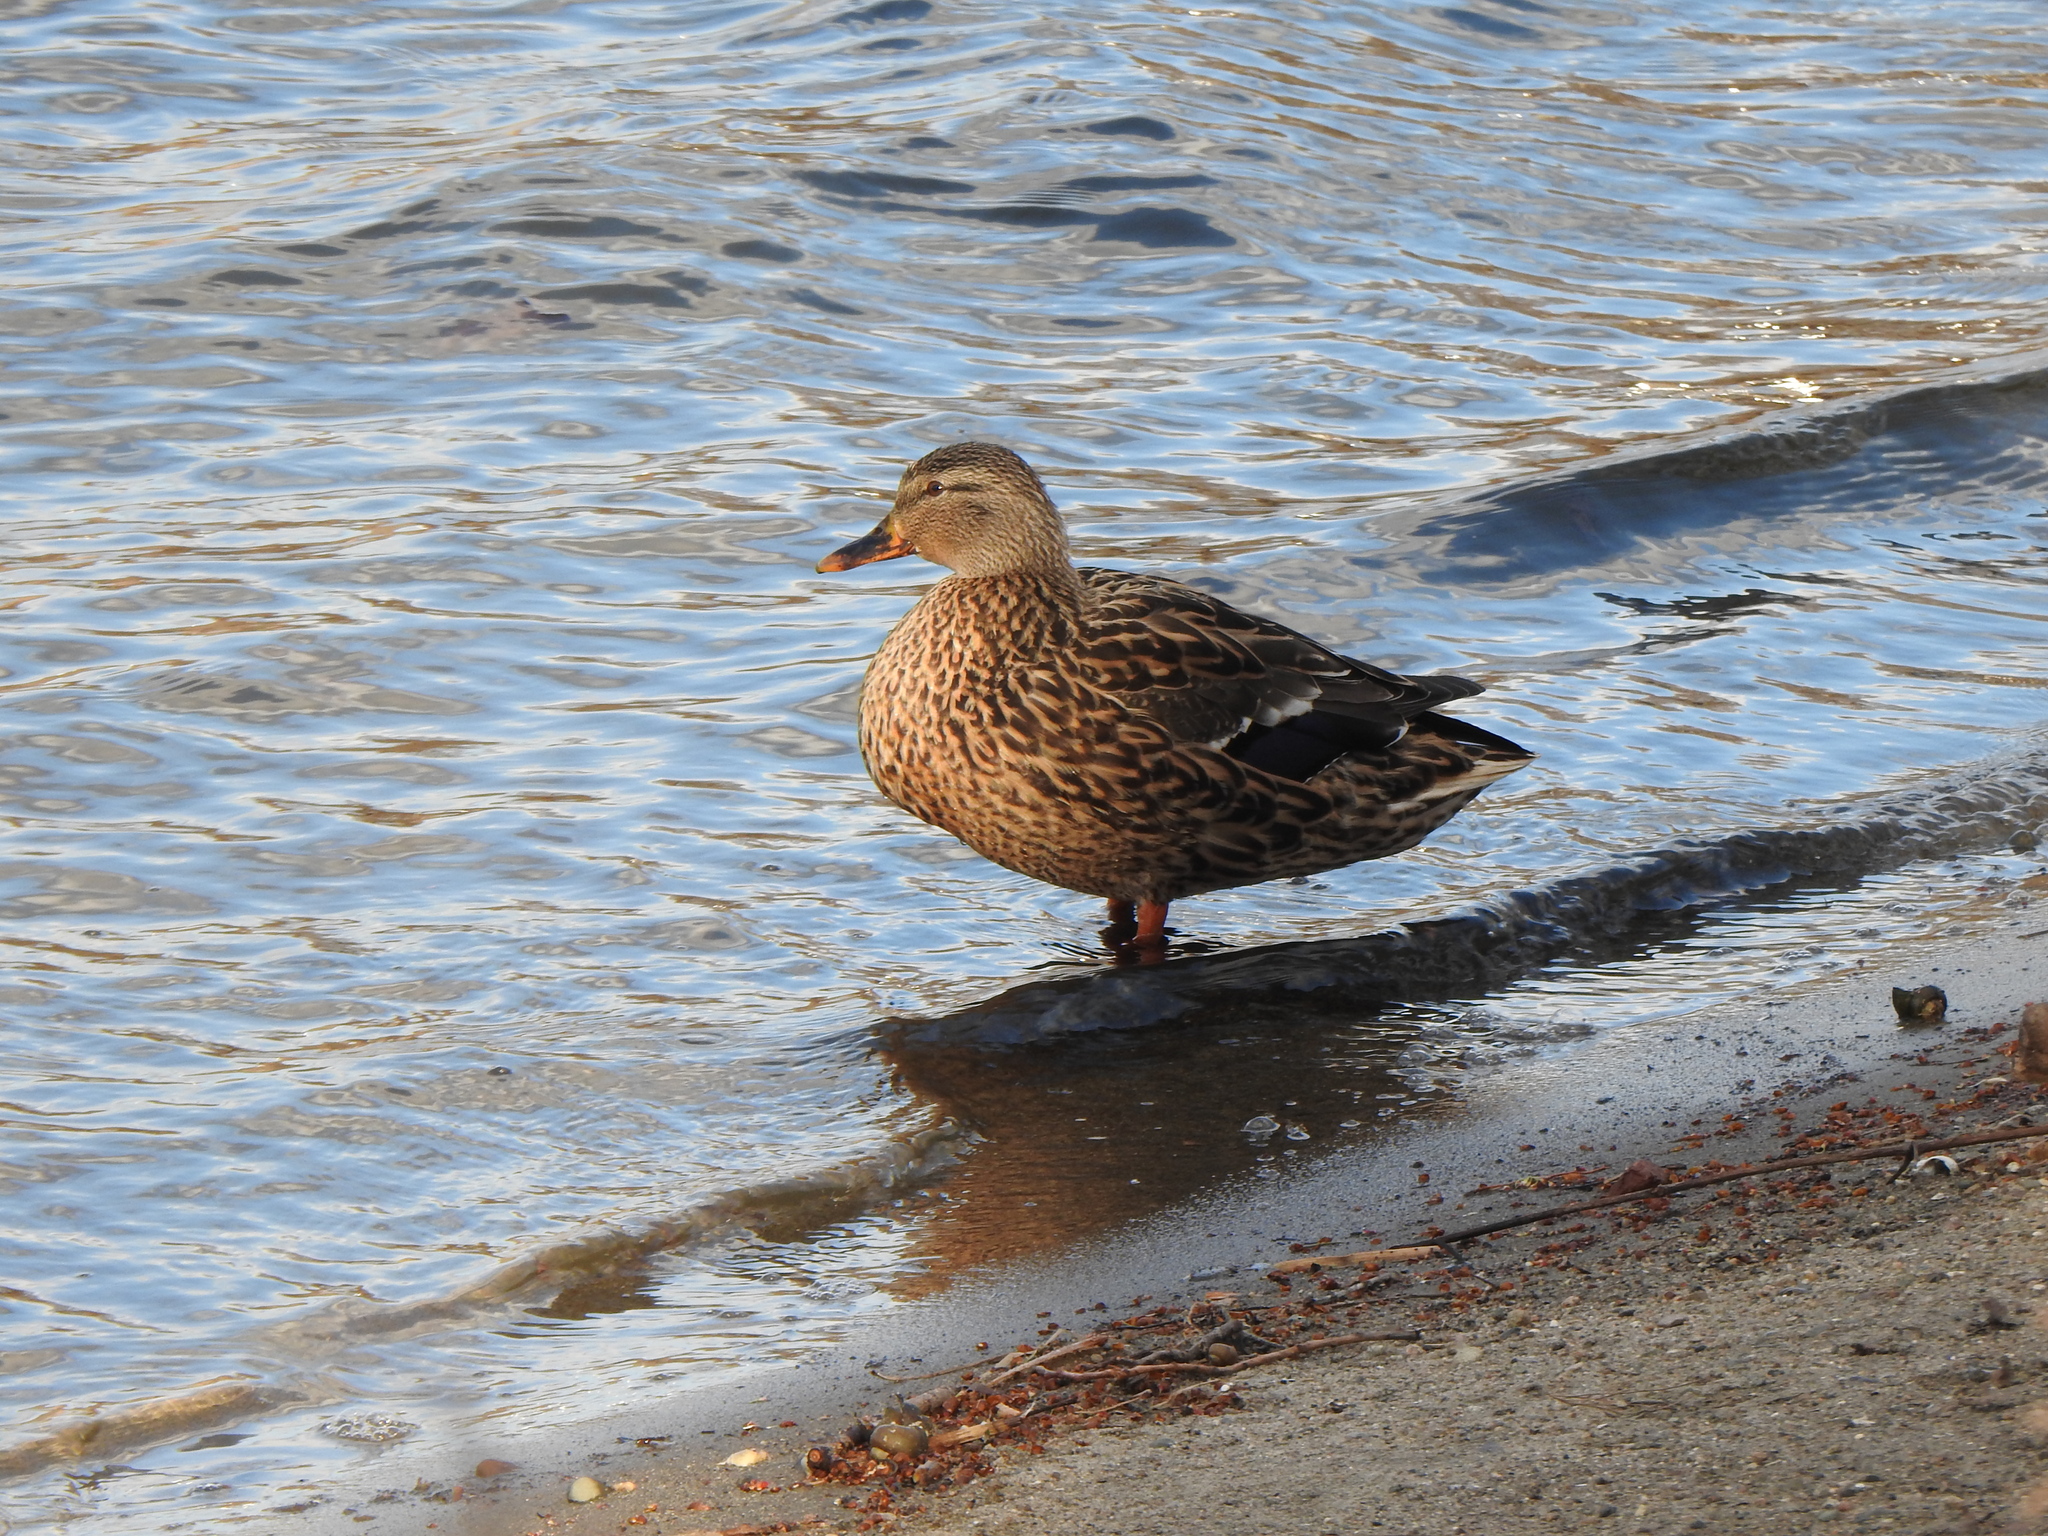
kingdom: Animalia
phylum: Chordata
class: Aves
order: Anseriformes
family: Anatidae
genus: Anas
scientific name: Anas platyrhynchos
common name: Mallard
